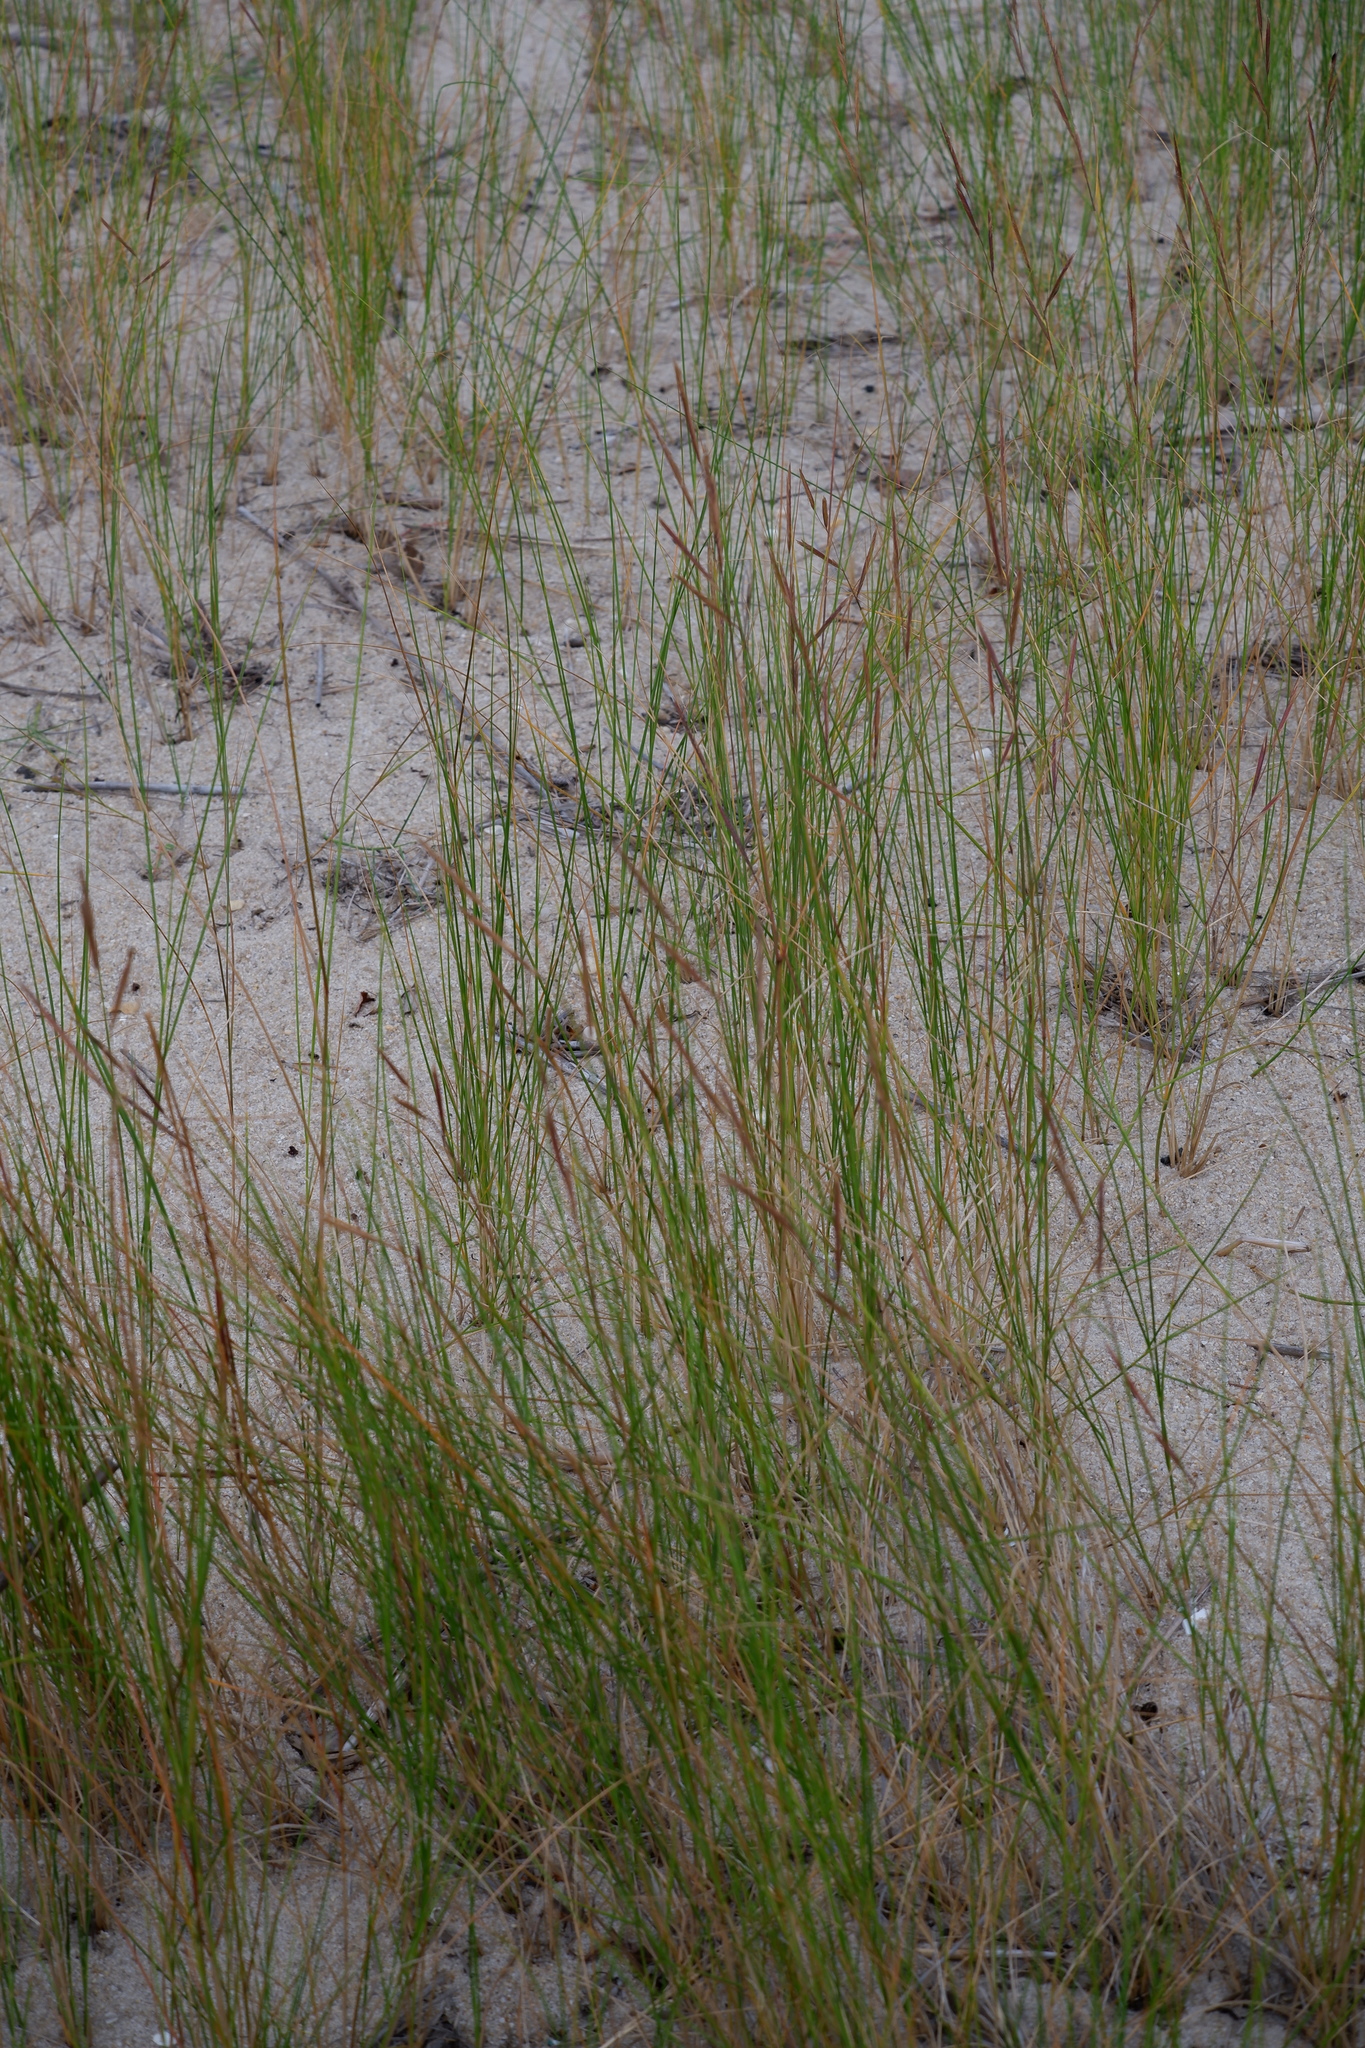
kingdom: Plantae
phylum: Tracheophyta
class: Liliopsida
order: Poales
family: Poaceae
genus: Sporobolus
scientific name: Sporobolus pumilus
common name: Highwater grass
